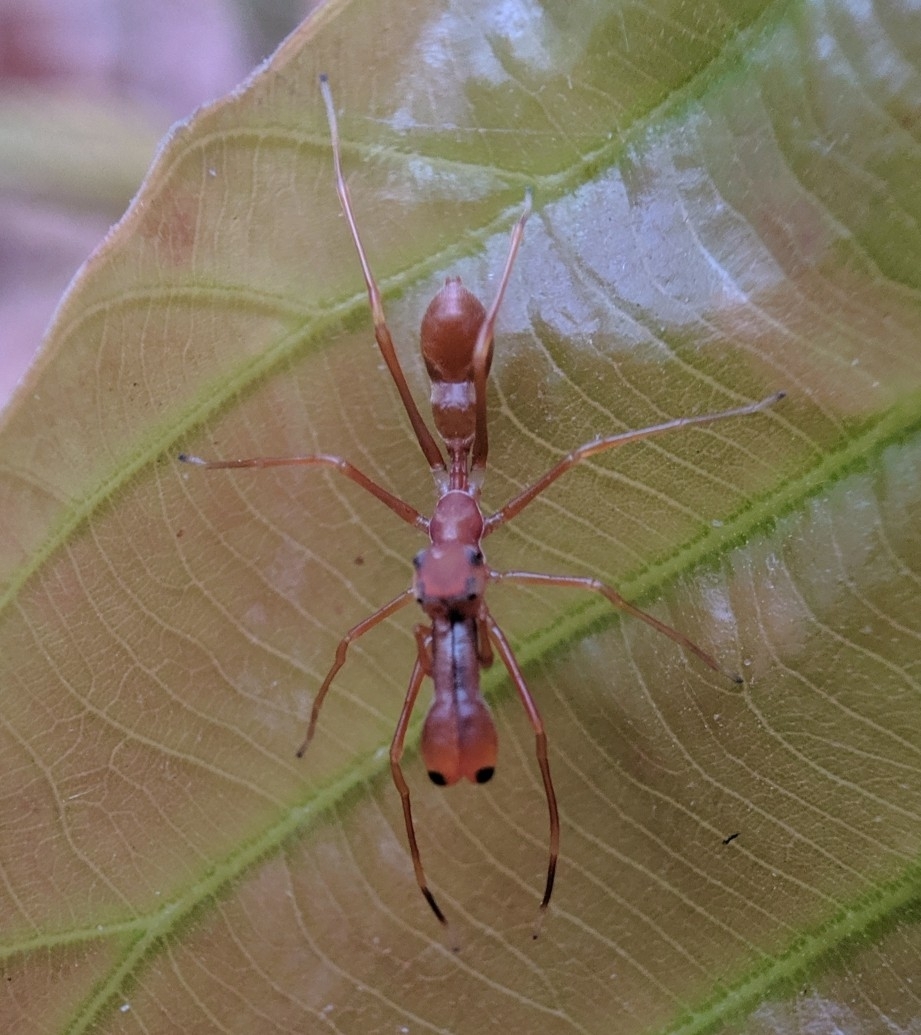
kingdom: Animalia
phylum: Arthropoda
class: Arachnida
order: Araneae
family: Salticidae
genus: Myrmaplata
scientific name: Myrmaplata plataleoides
